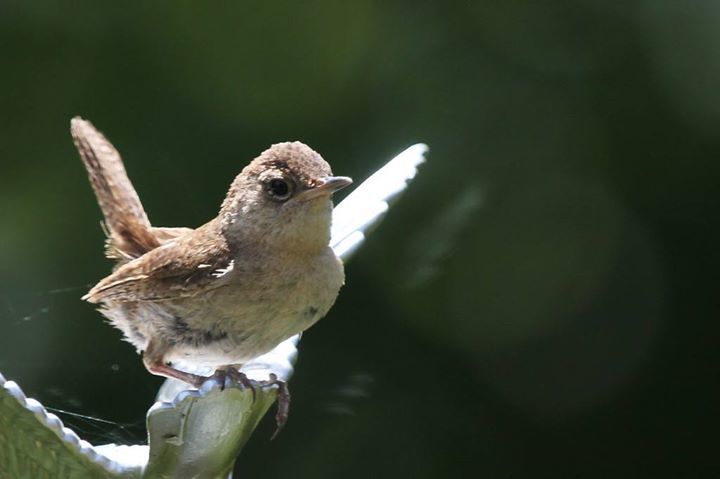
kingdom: Animalia
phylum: Chordata
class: Aves
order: Passeriformes
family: Troglodytidae
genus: Troglodytes
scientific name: Troglodytes aedon
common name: House wren
